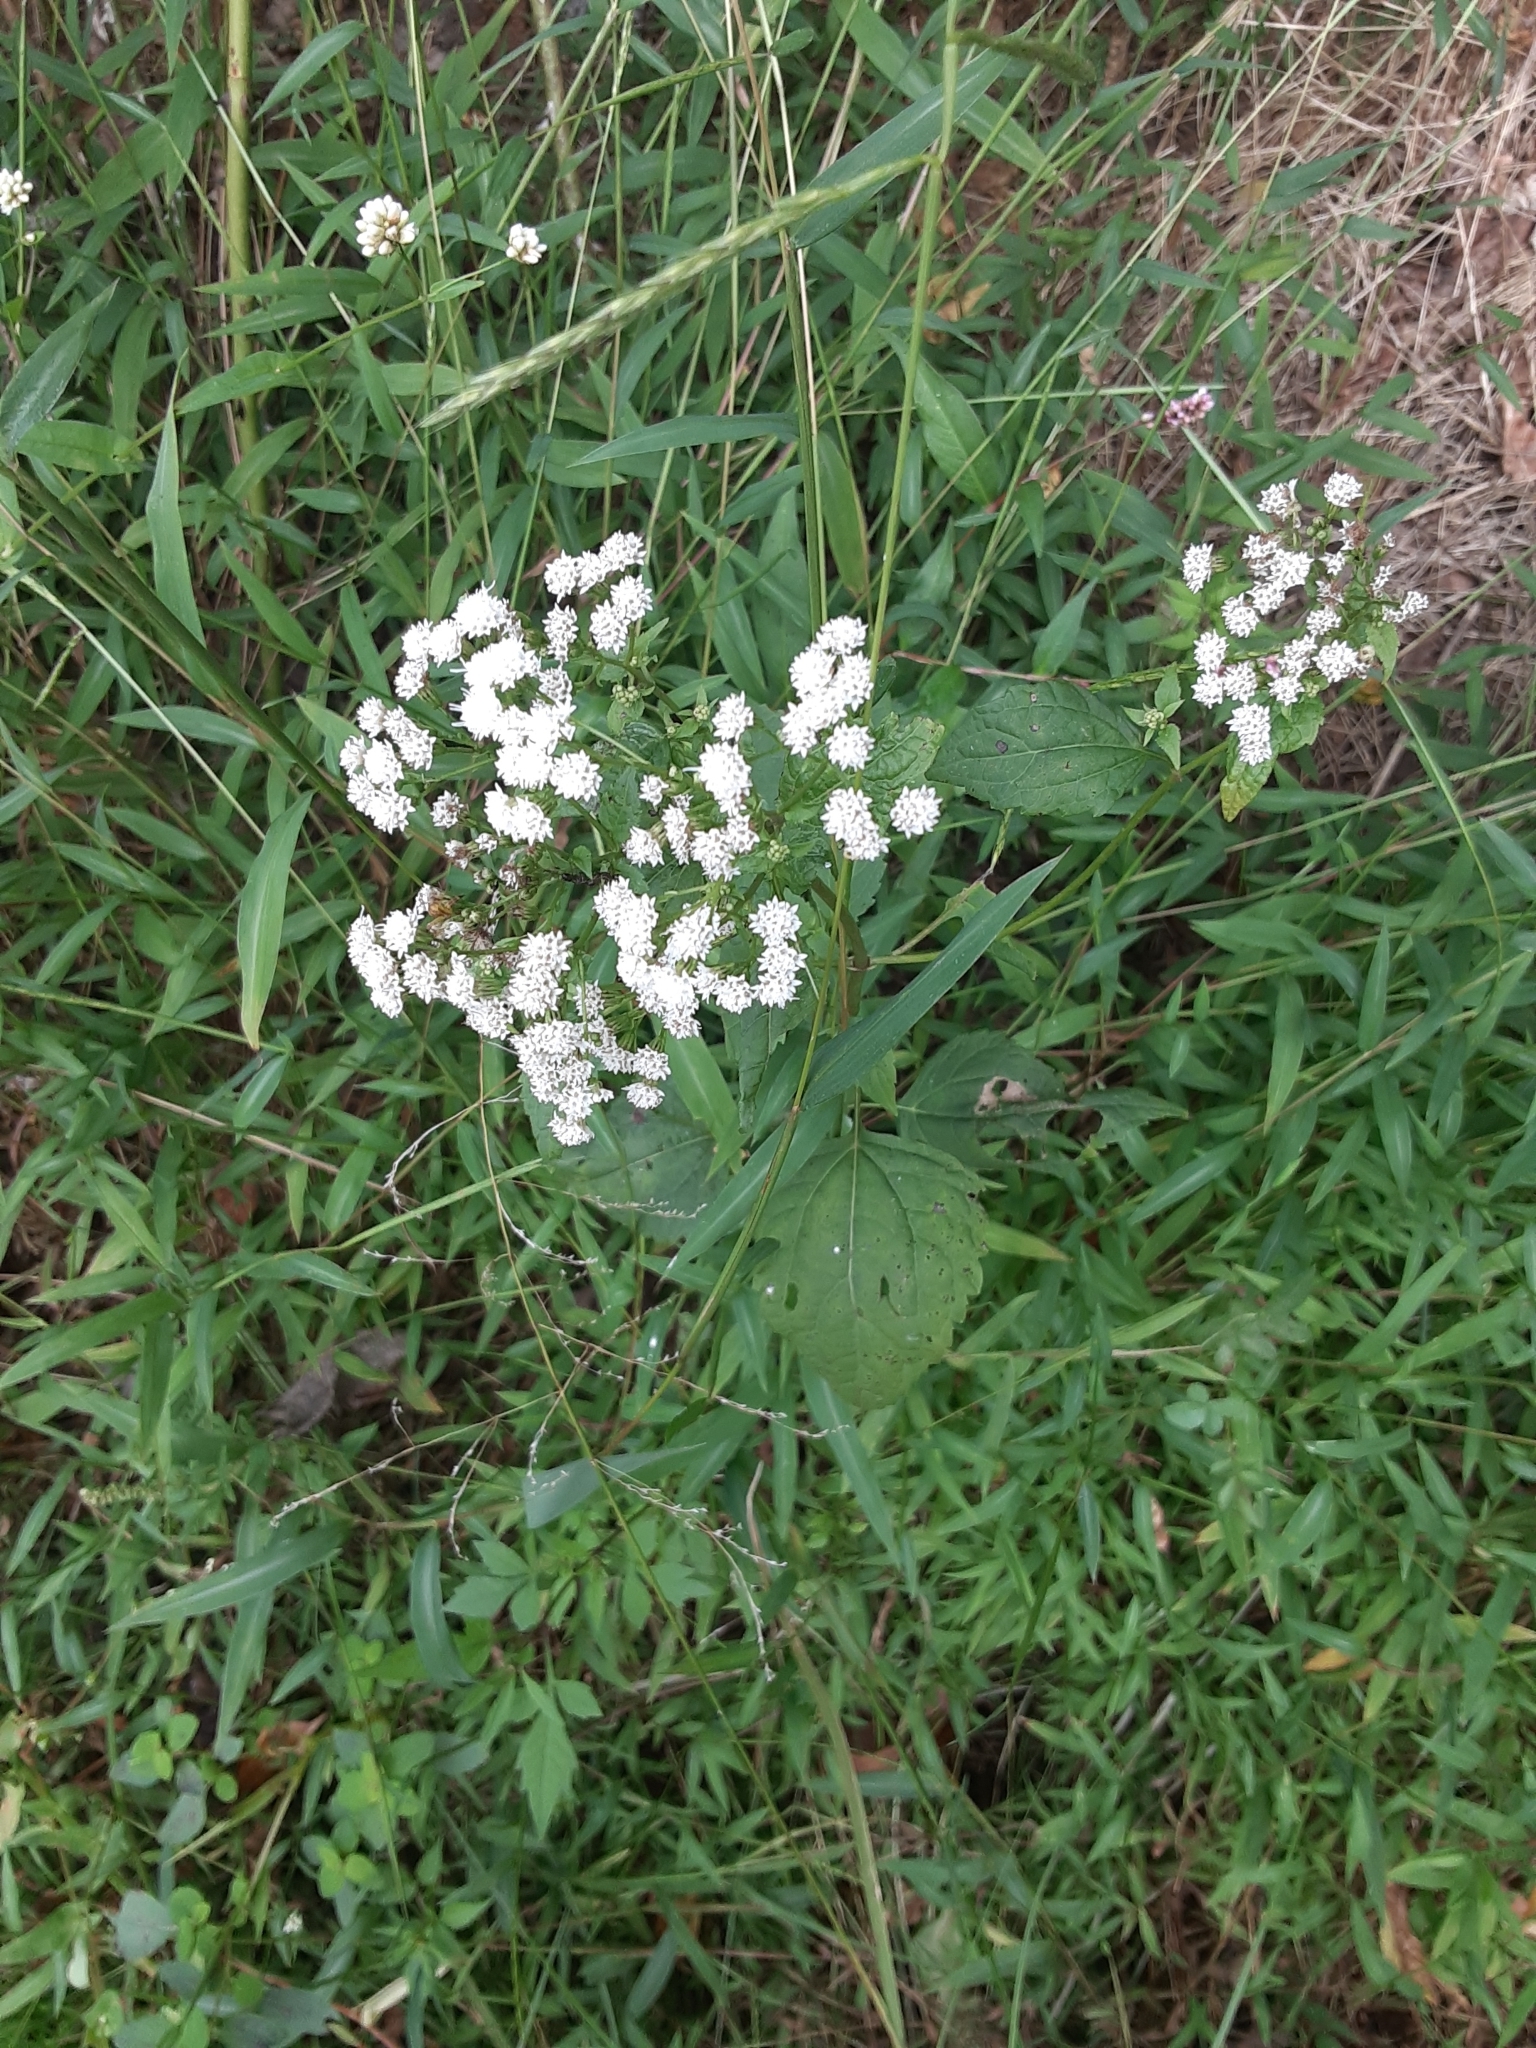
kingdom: Plantae
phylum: Tracheophyta
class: Magnoliopsida
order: Asterales
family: Asteraceae
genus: Ageratina
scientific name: Ageratina altissima
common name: White snakeroot
